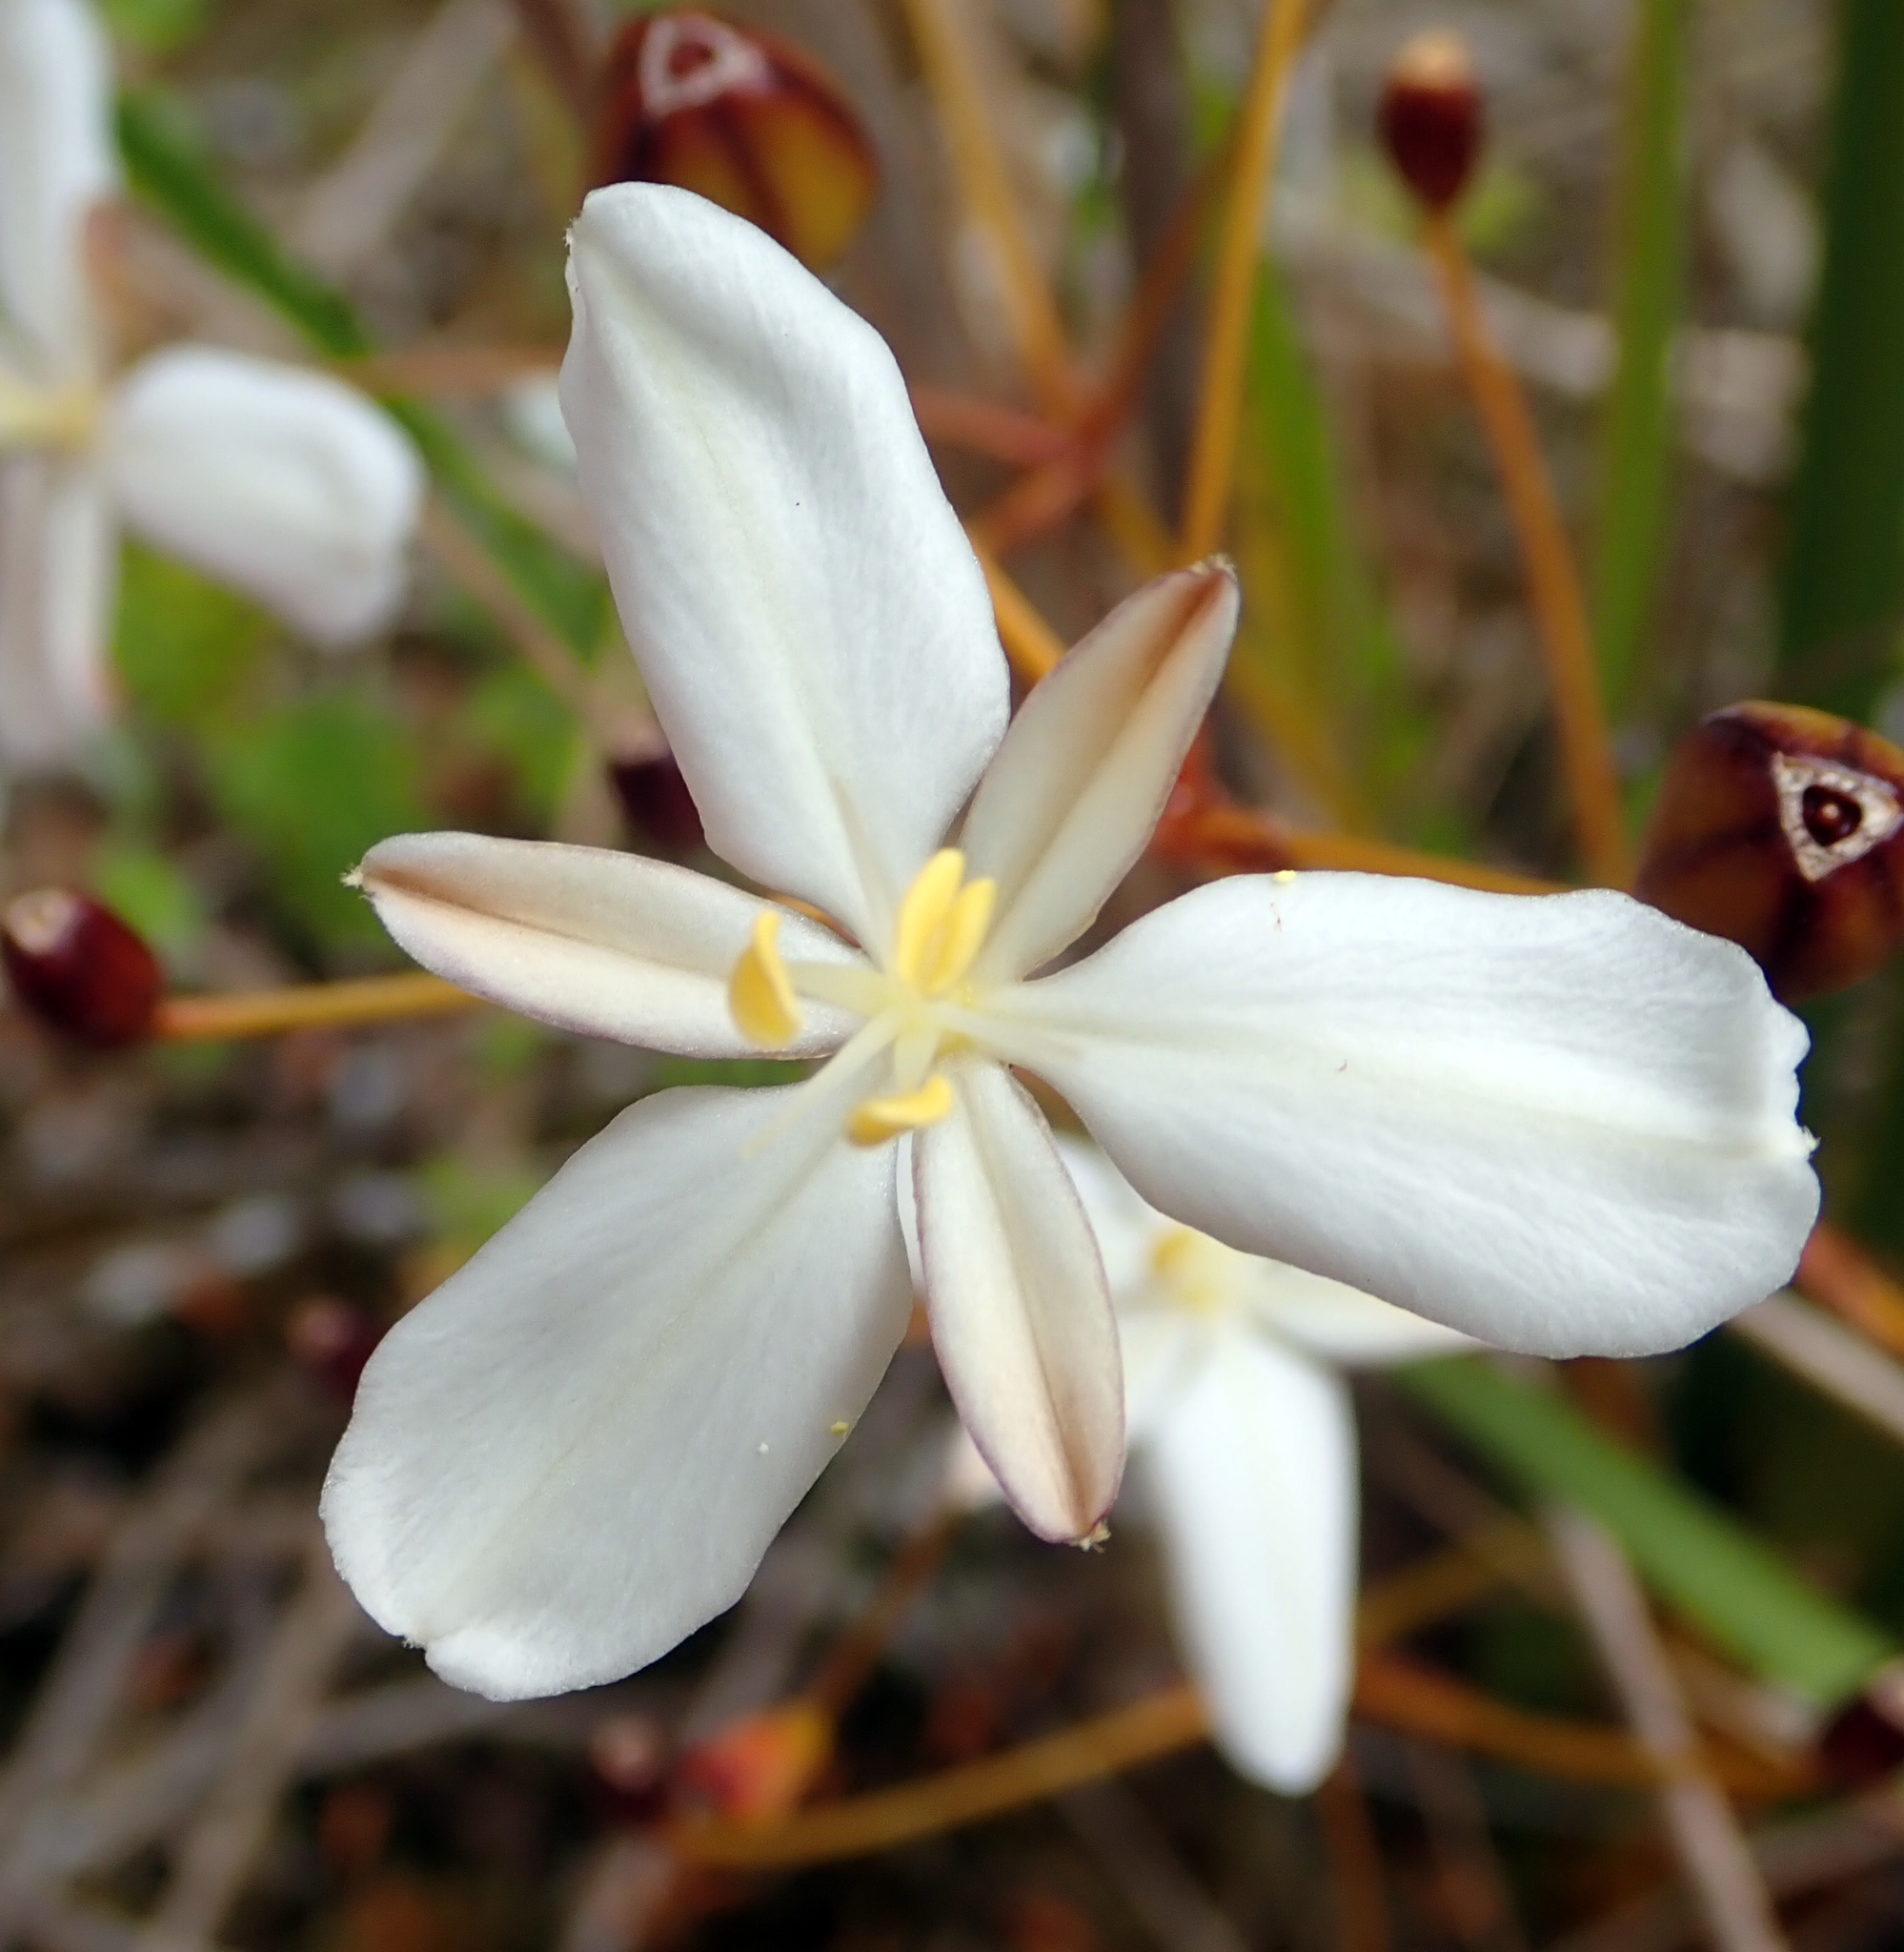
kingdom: Plantae
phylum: Tracheophyta
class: Liliopsida
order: Asparagales
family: Iridaceae
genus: Libertia
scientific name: Libertia peregrinans
